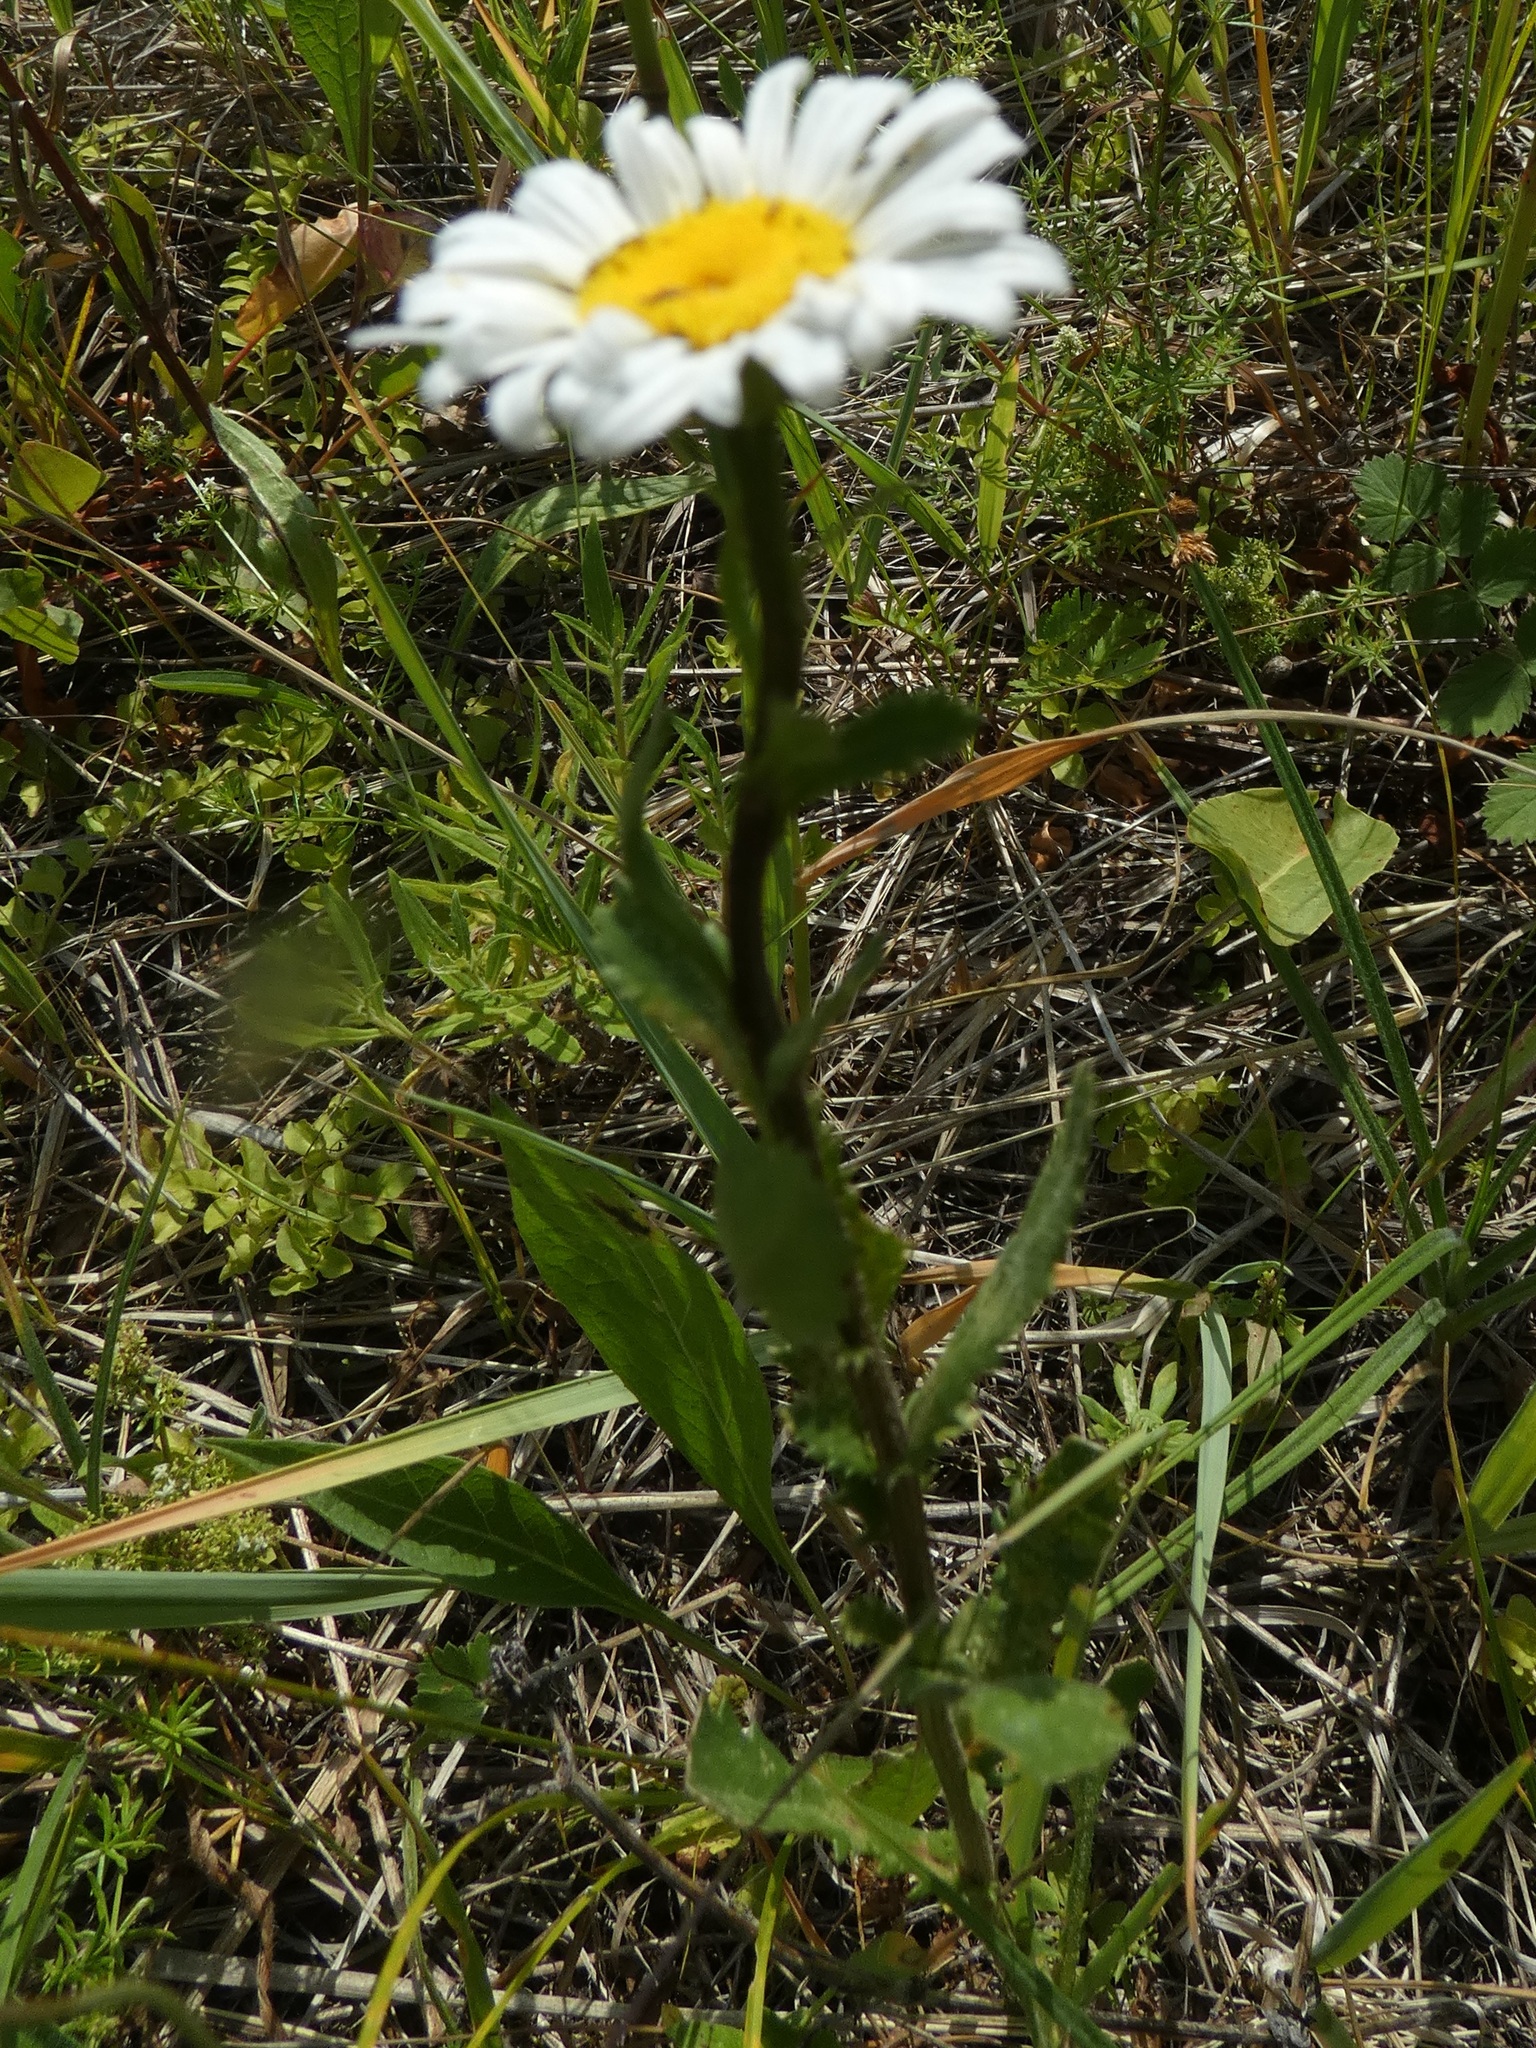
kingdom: Plantae
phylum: Tracheophyta
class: Magnoliopsida
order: Asterales
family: Asteraceae
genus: Leucanthemum
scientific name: Leucanthemum vulgare
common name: Oxeye daisy
